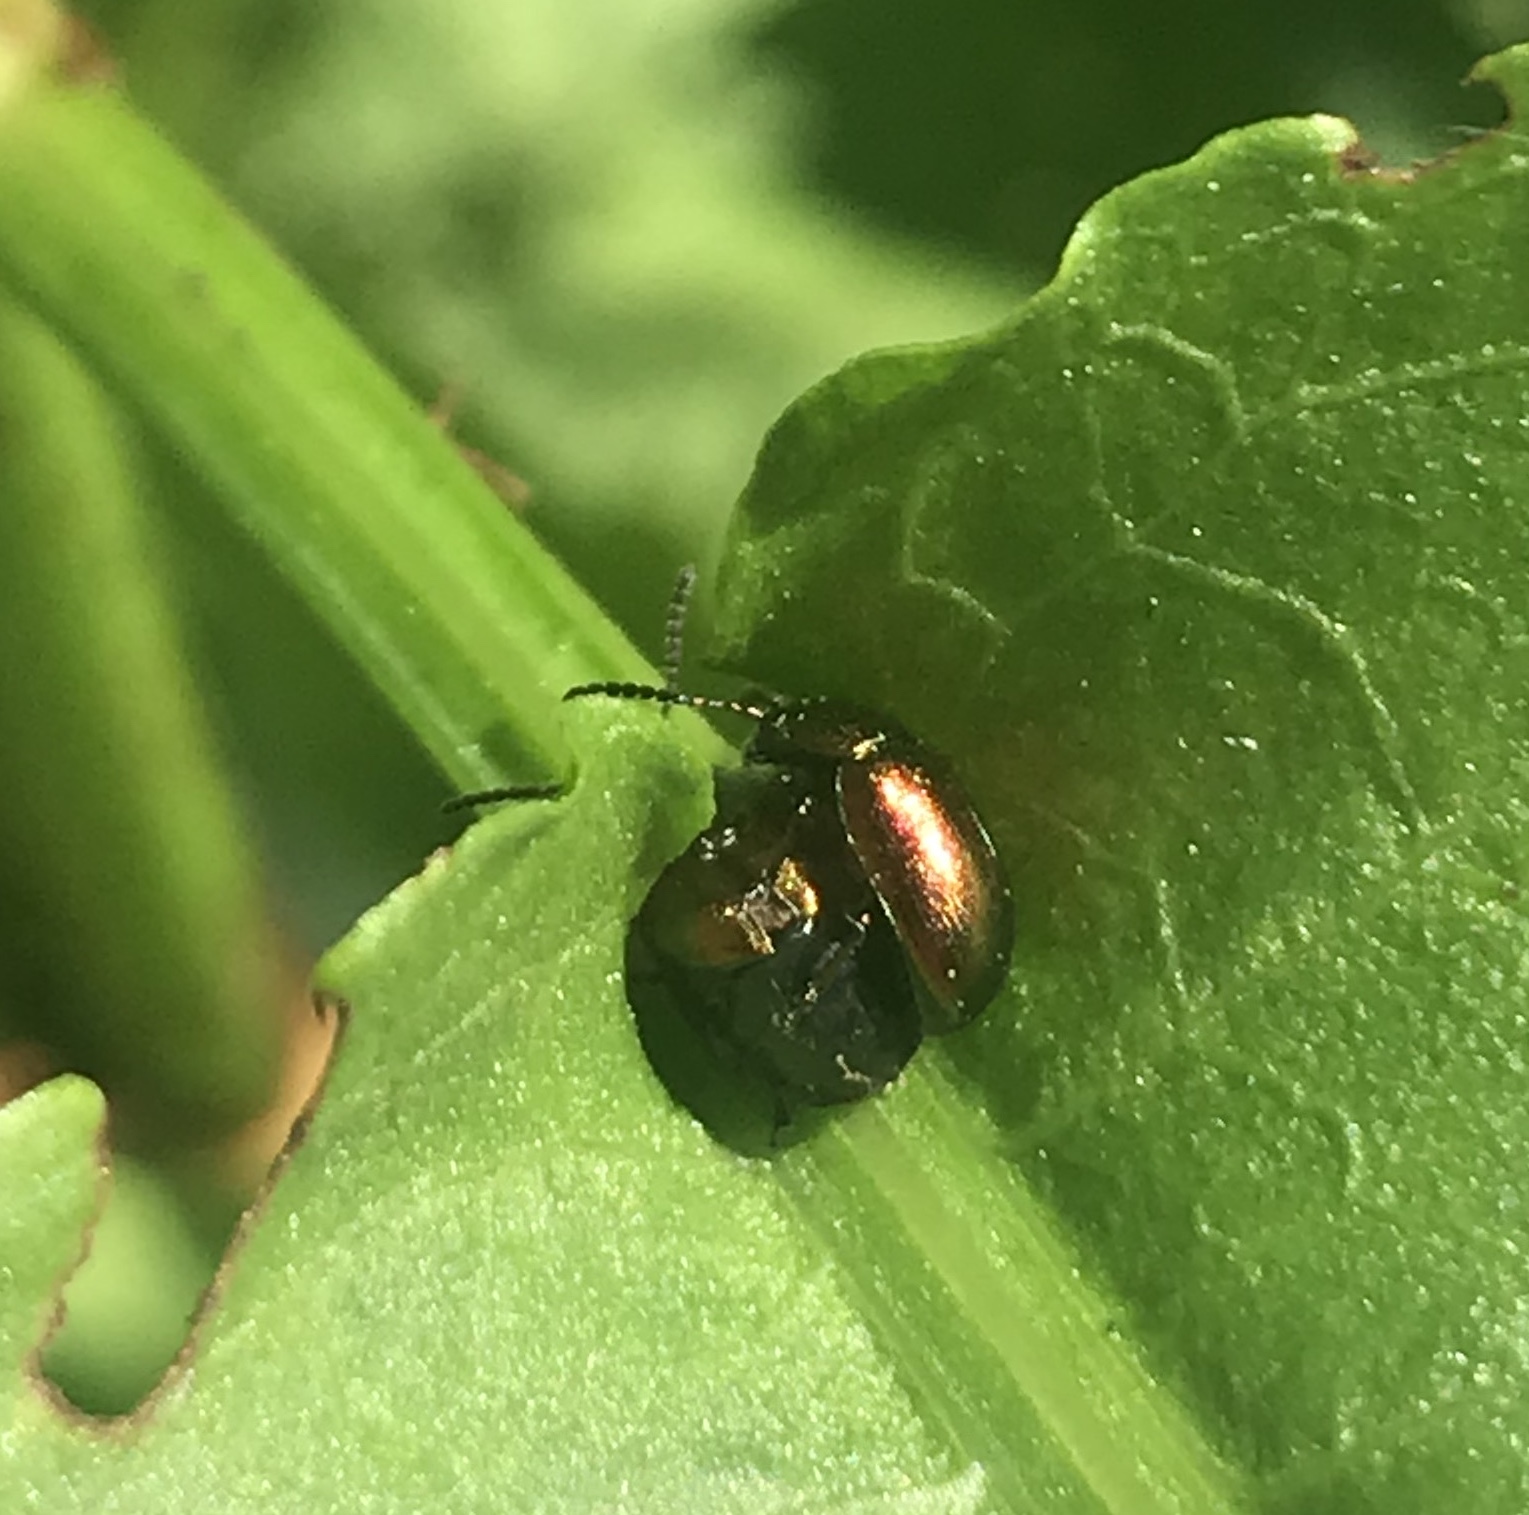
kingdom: Animalia
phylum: Arthropoda
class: Insecta
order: Coleoptera
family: Chrysomelidae
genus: Gastrophysa
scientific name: Gastrophysa cyanea
